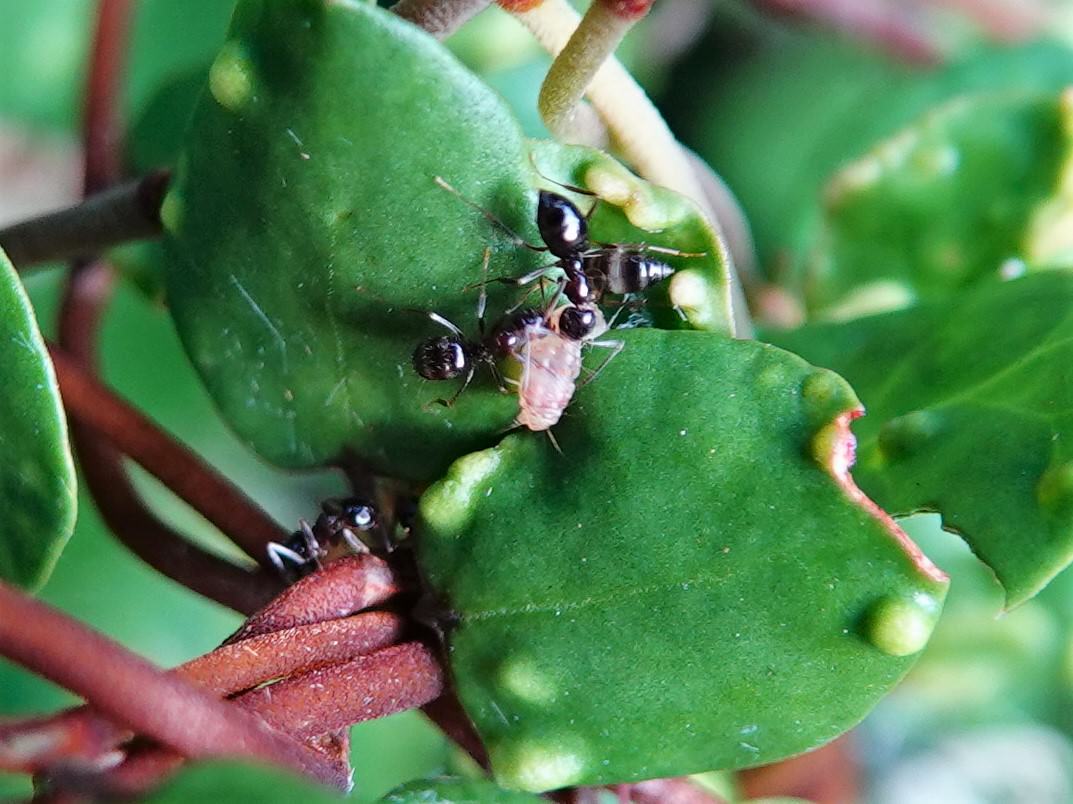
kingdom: Animalia
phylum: Arthropoda
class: Insecta
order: Hymenoptera
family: Formicidae
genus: Technomyrmex
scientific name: Technomyrmex jocosus
